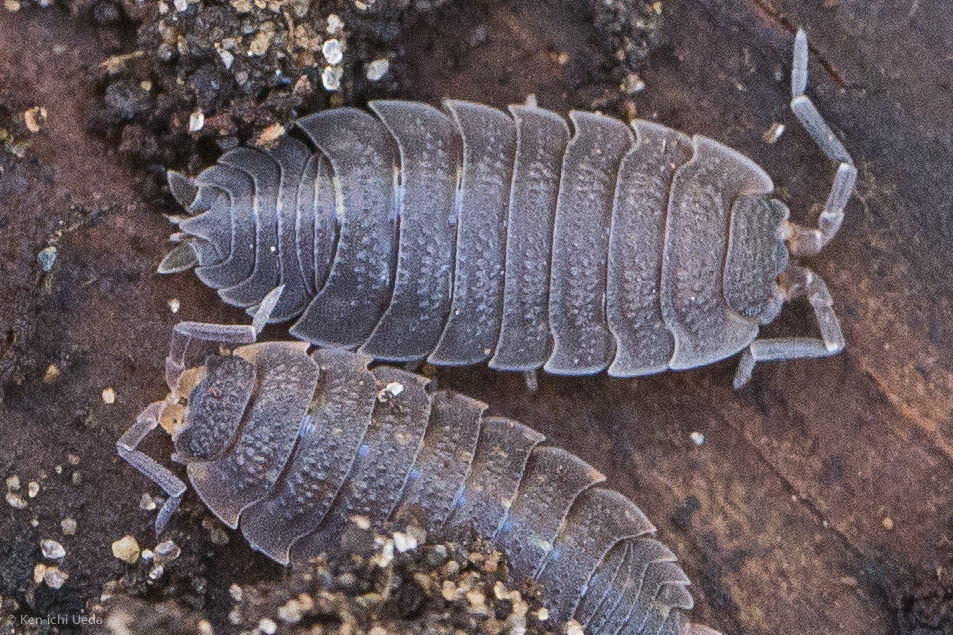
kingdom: Animalia
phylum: Arthropoda
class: Malacostraca
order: Isopoda
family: Porcellionidae
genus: Porcellio
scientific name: Porcellio scaber
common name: Common rough woodlouse
